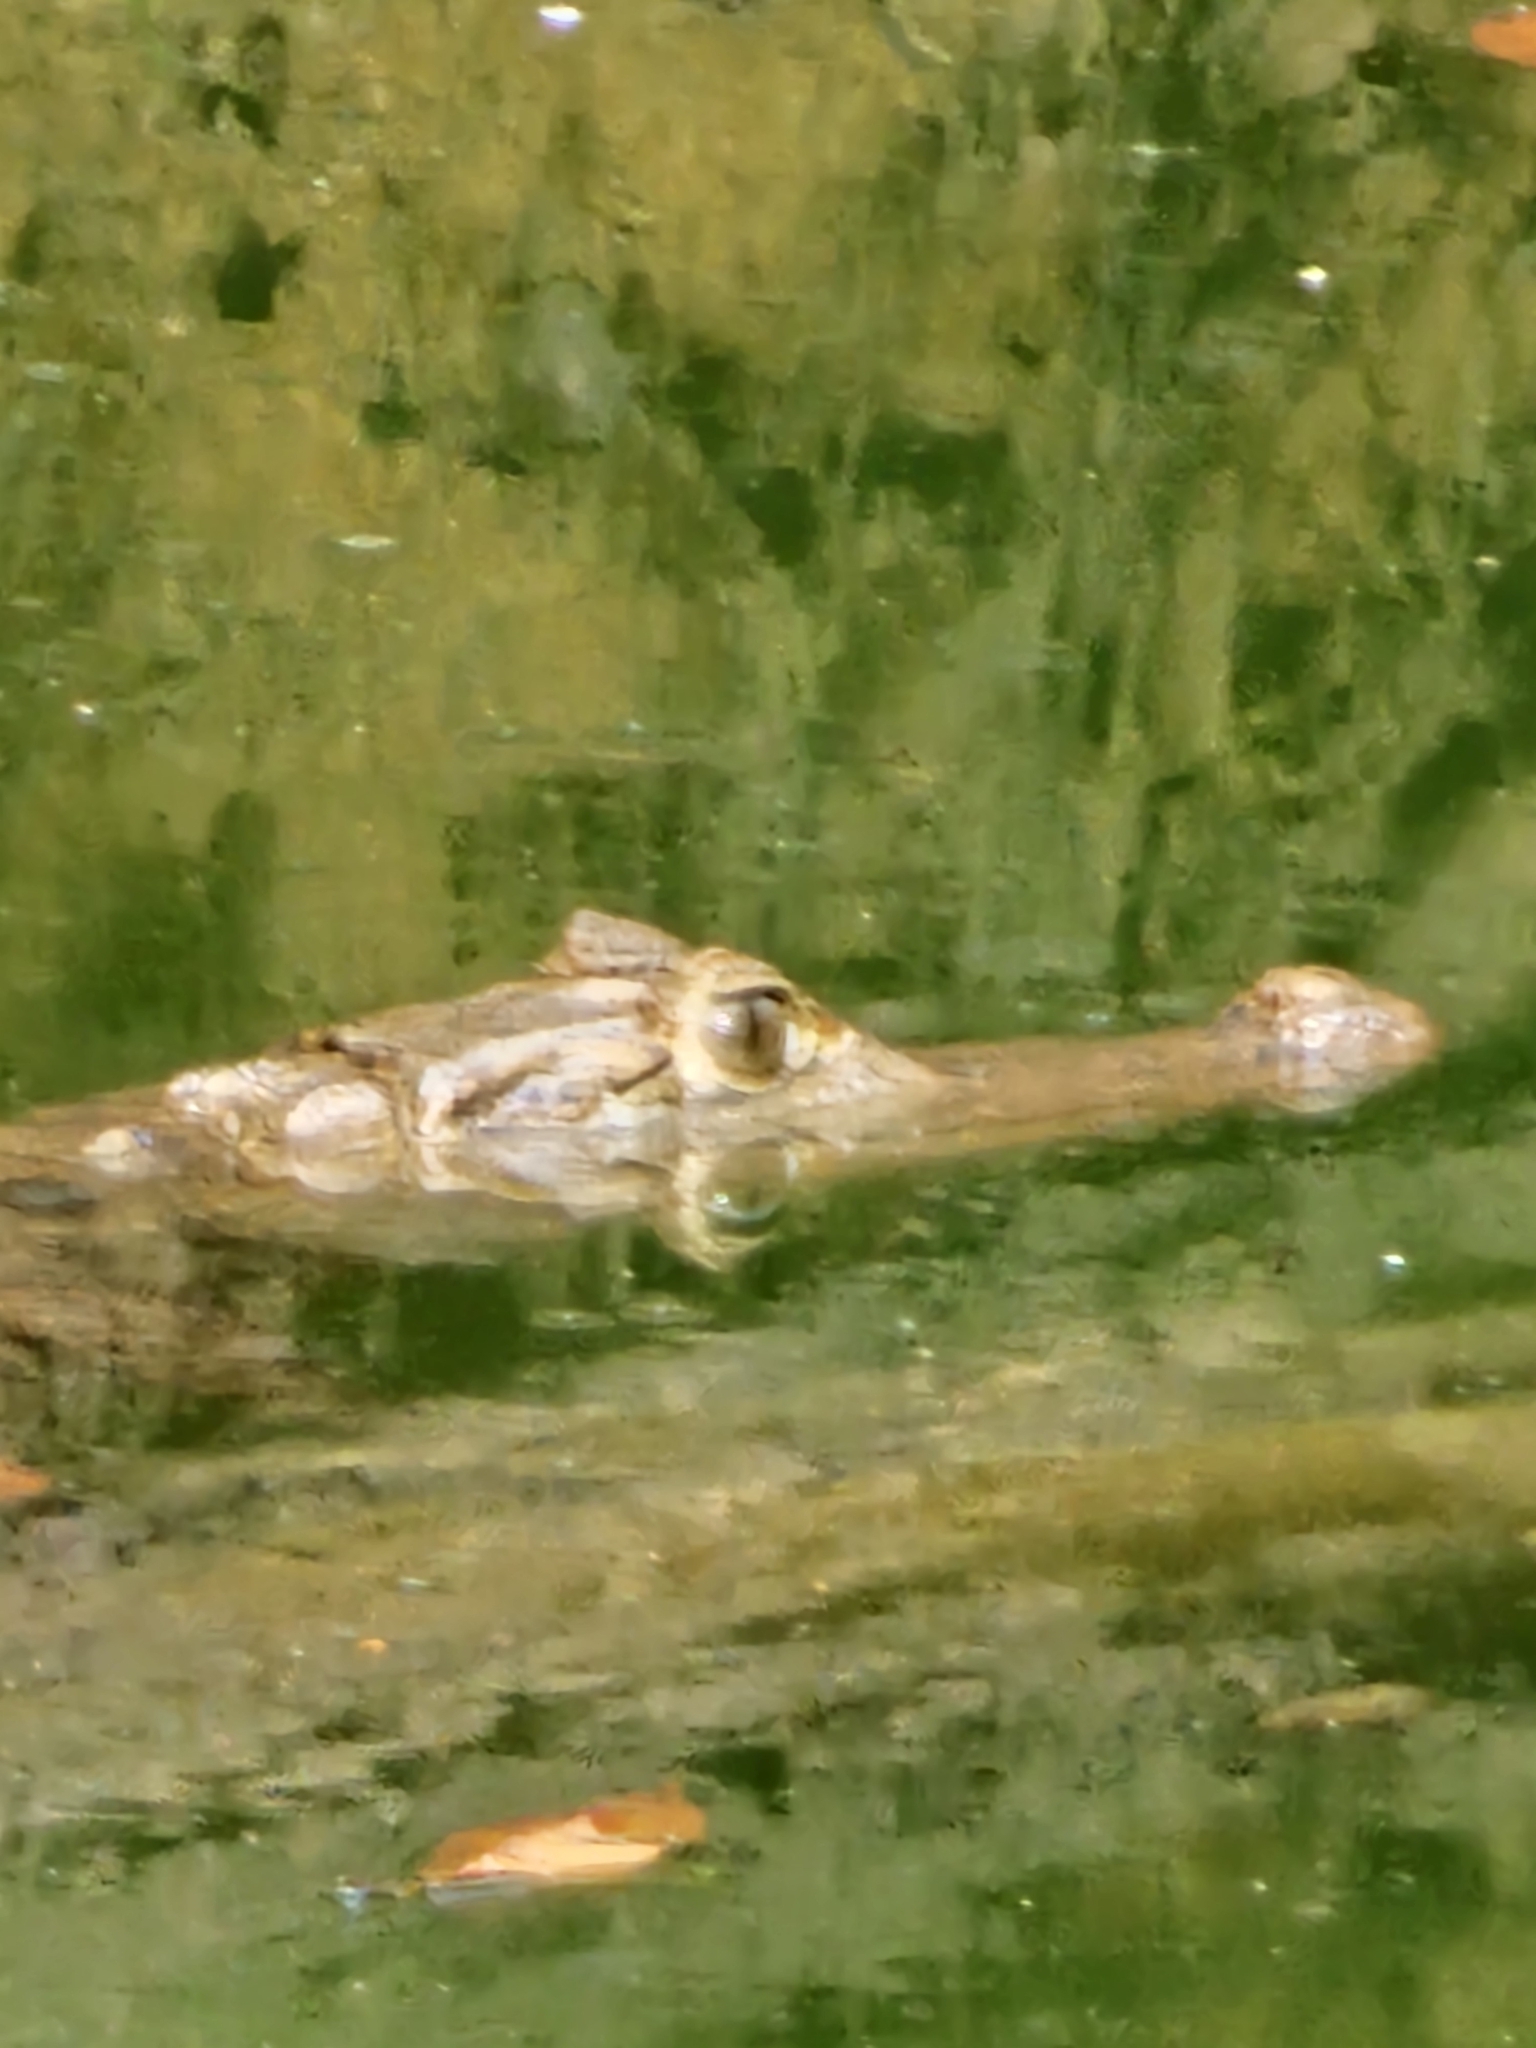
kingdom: Animalia
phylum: Chordata
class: Crocodylia
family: Alligatoridae
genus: Caiman
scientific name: Caiman crocodilus
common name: Common caiman
